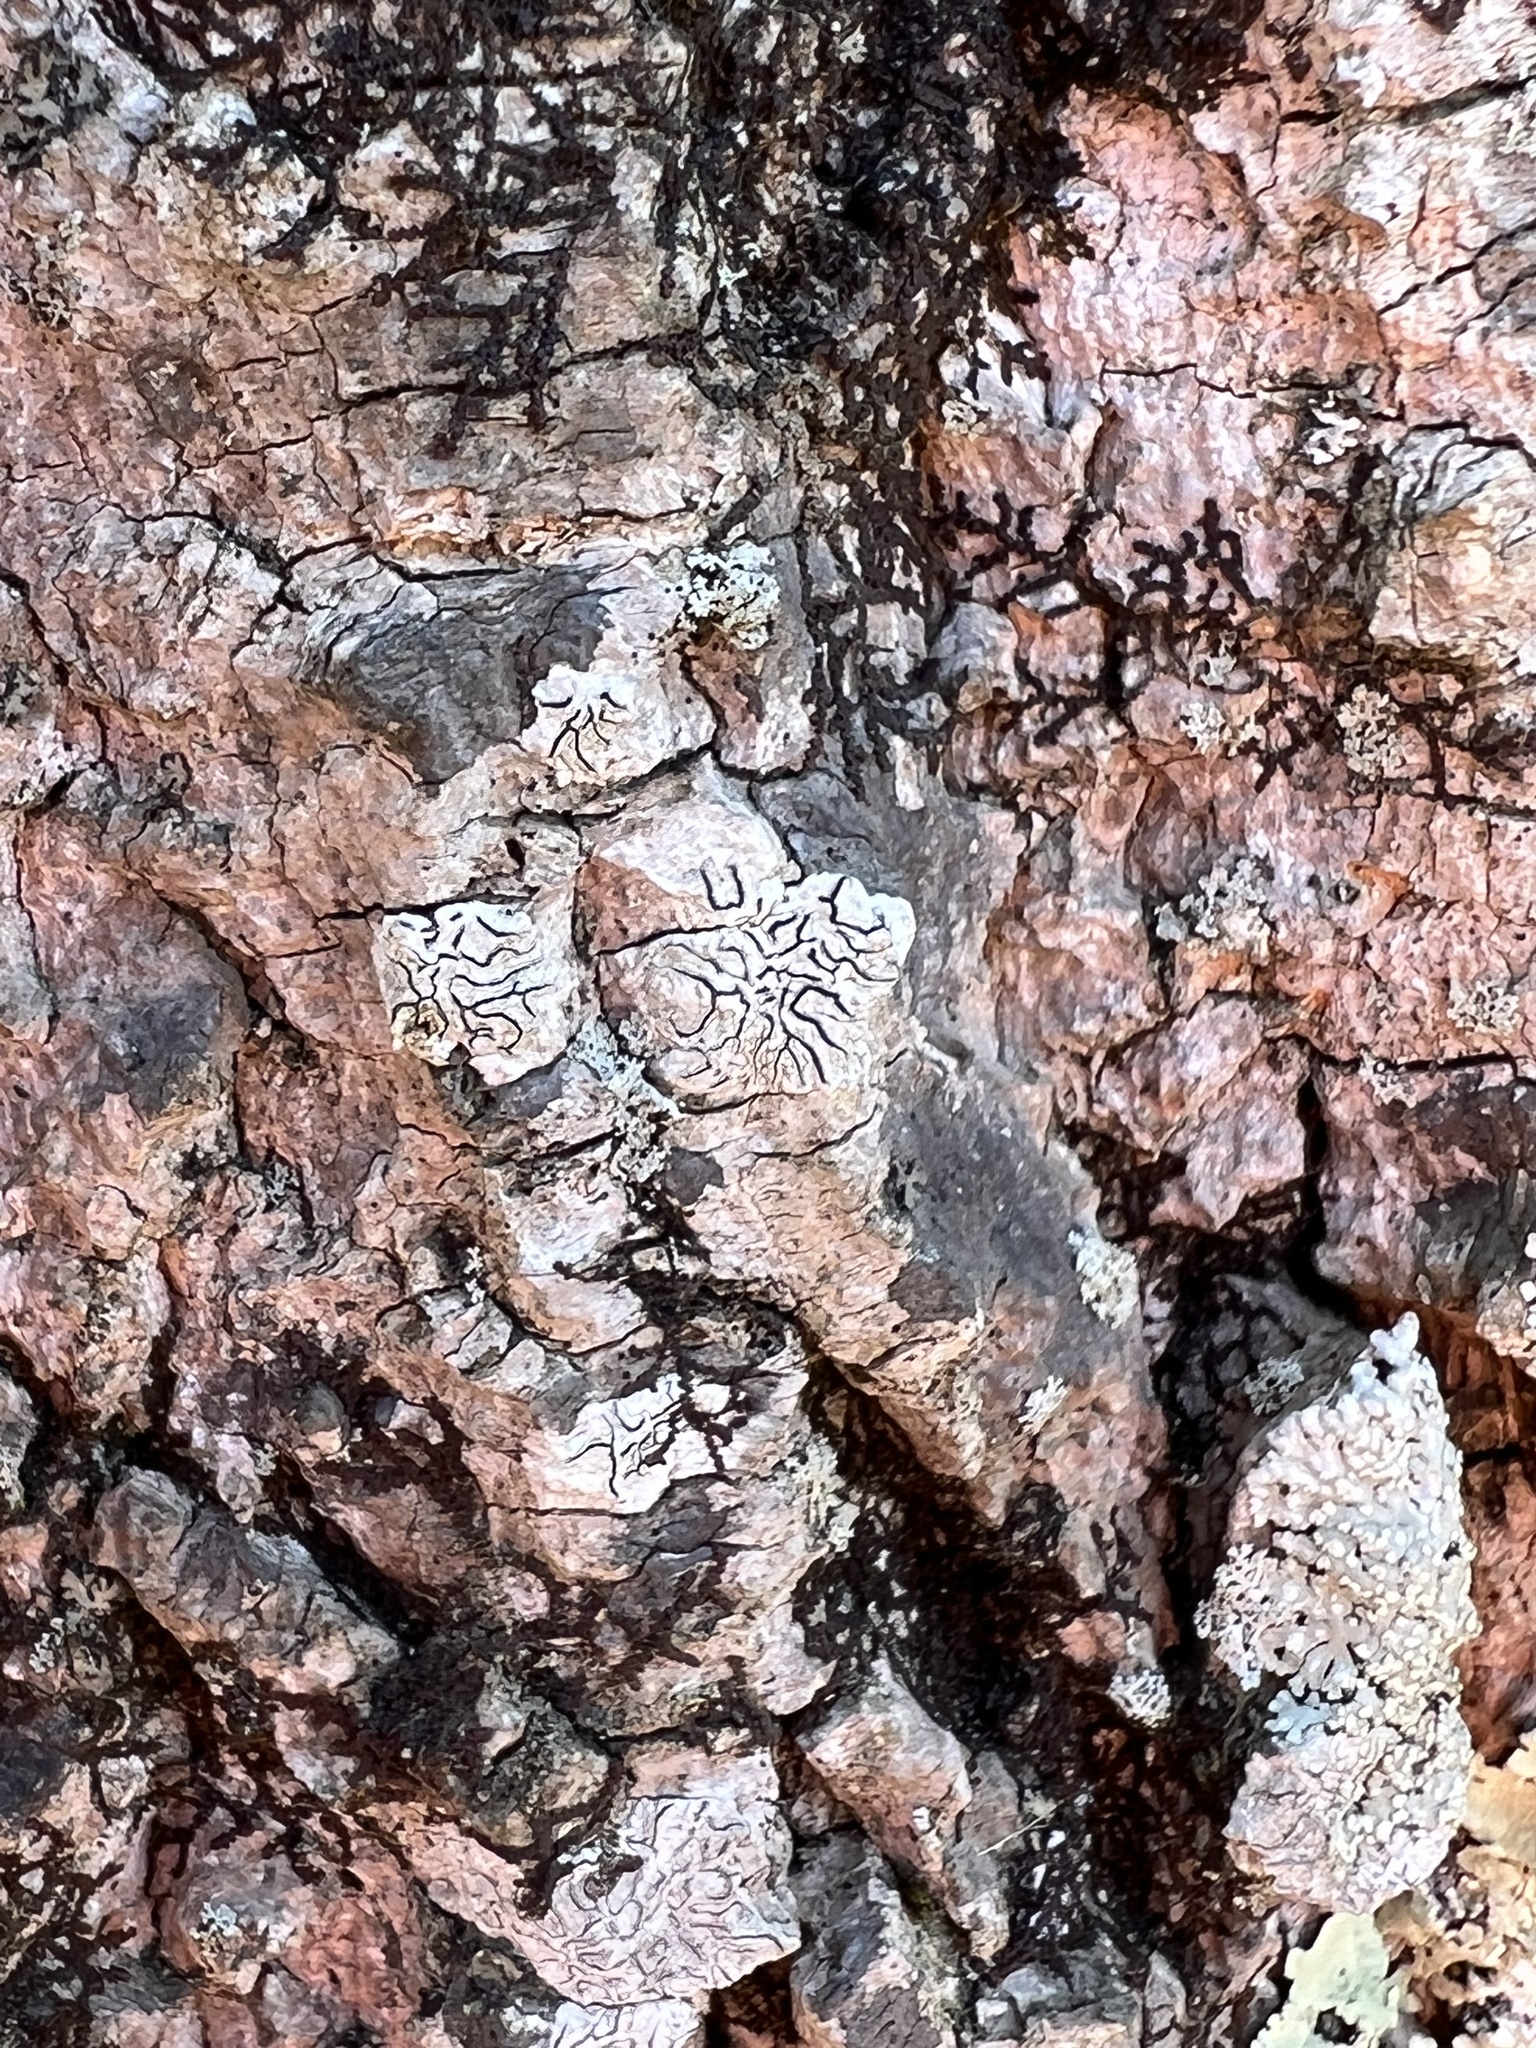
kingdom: Fungi
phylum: Ascomycota
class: Lecanoromycetes
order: Ostropales
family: Graphidaceae
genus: Graphis
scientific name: Graphis scripta
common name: Script lichen
